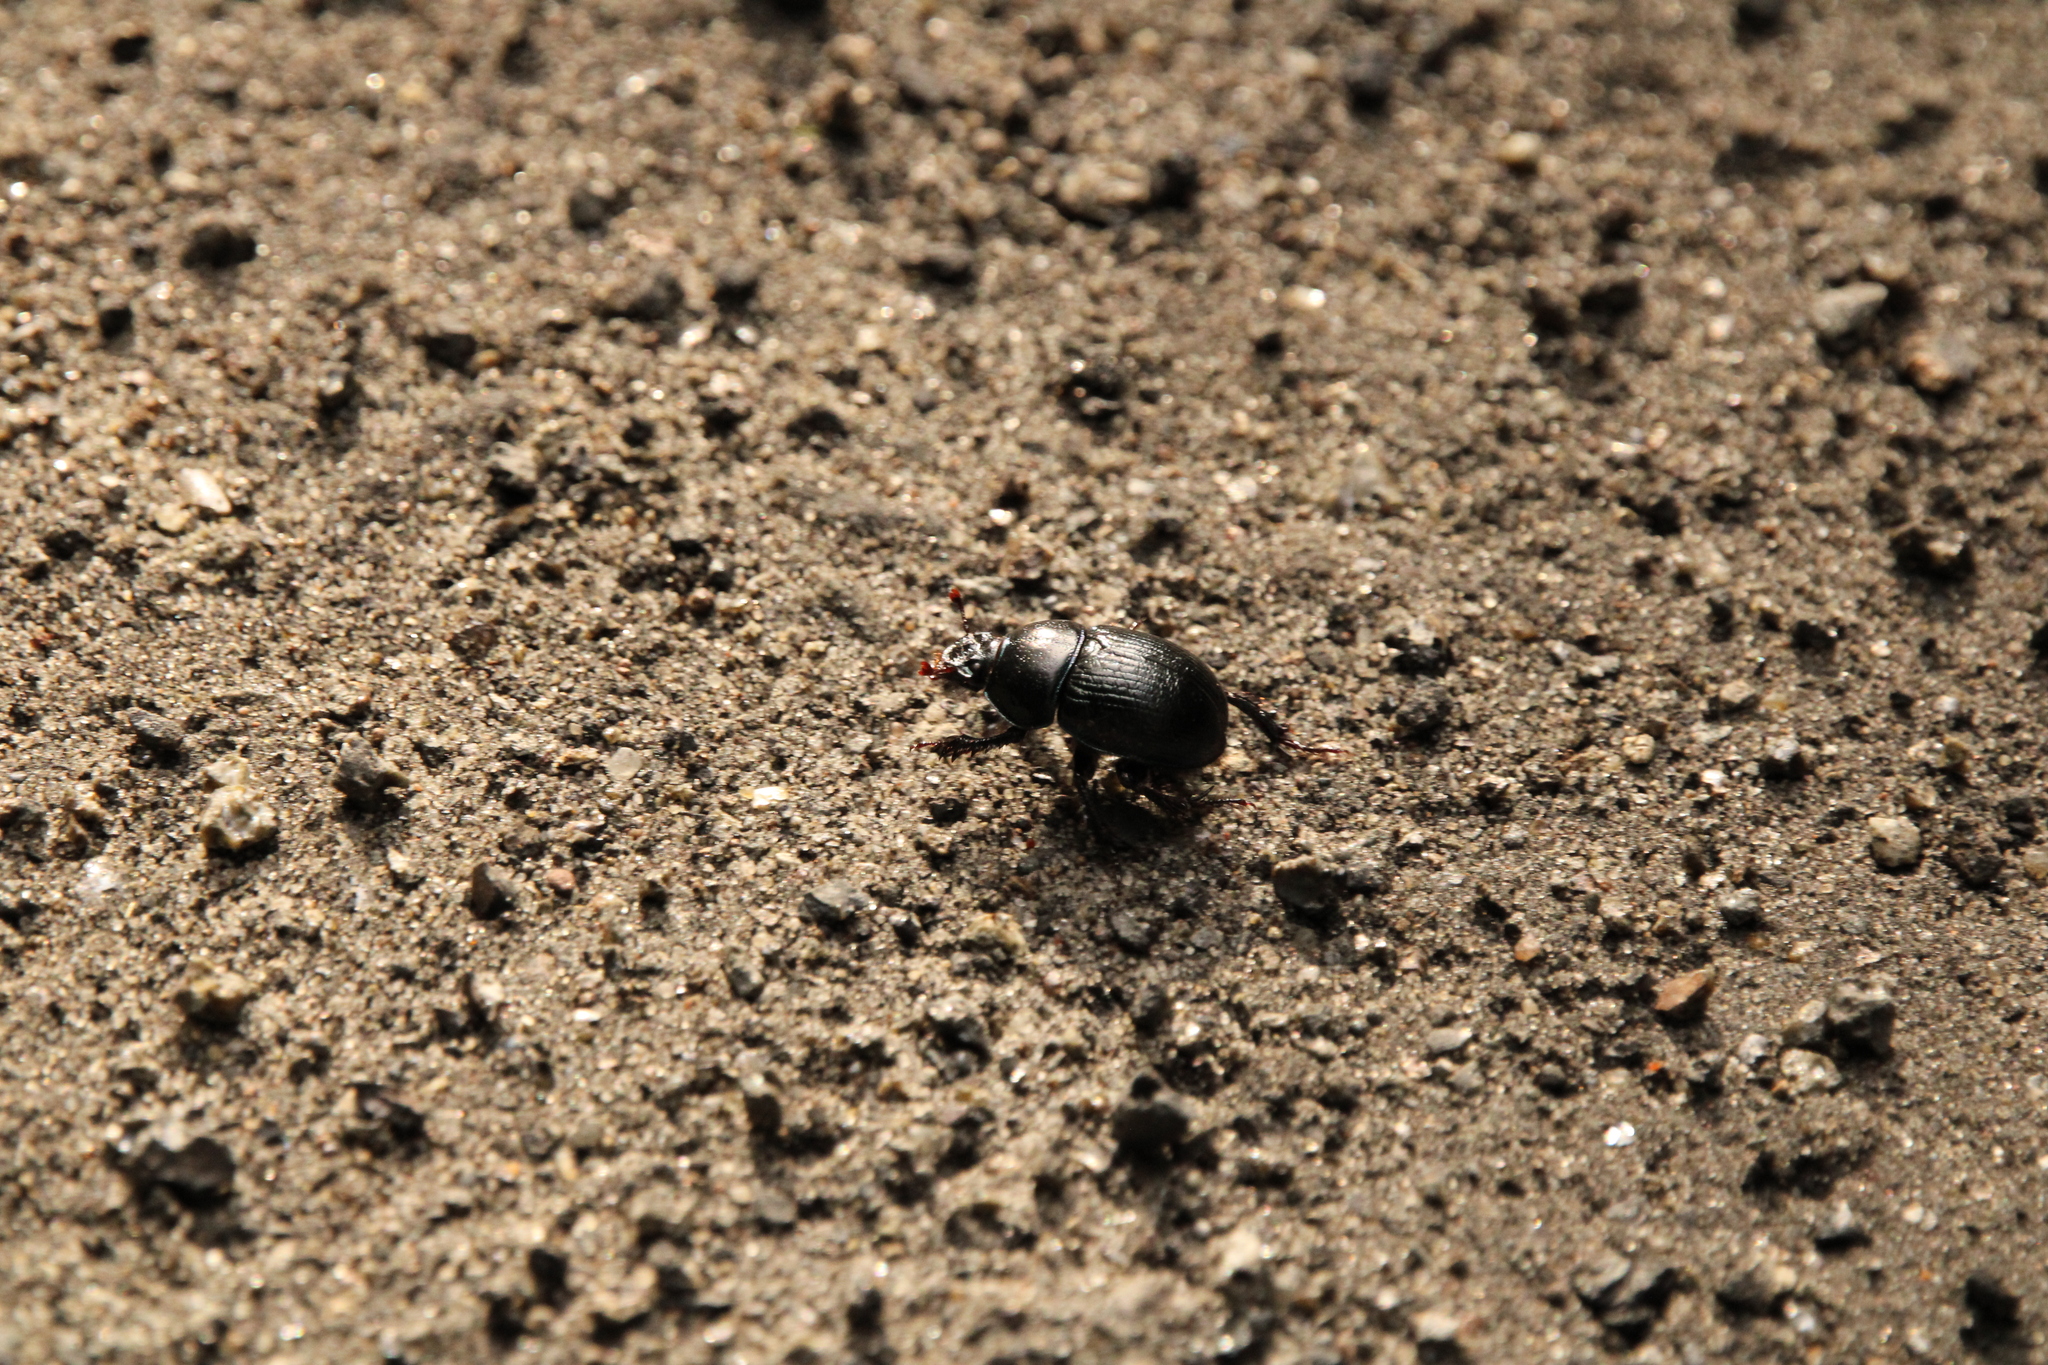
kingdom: Animalia
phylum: Arthropoda
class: Insecta
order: Coleoptera
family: Geotrupidae
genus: Anoplotrupes
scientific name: Anoplotrupes stercorosus
